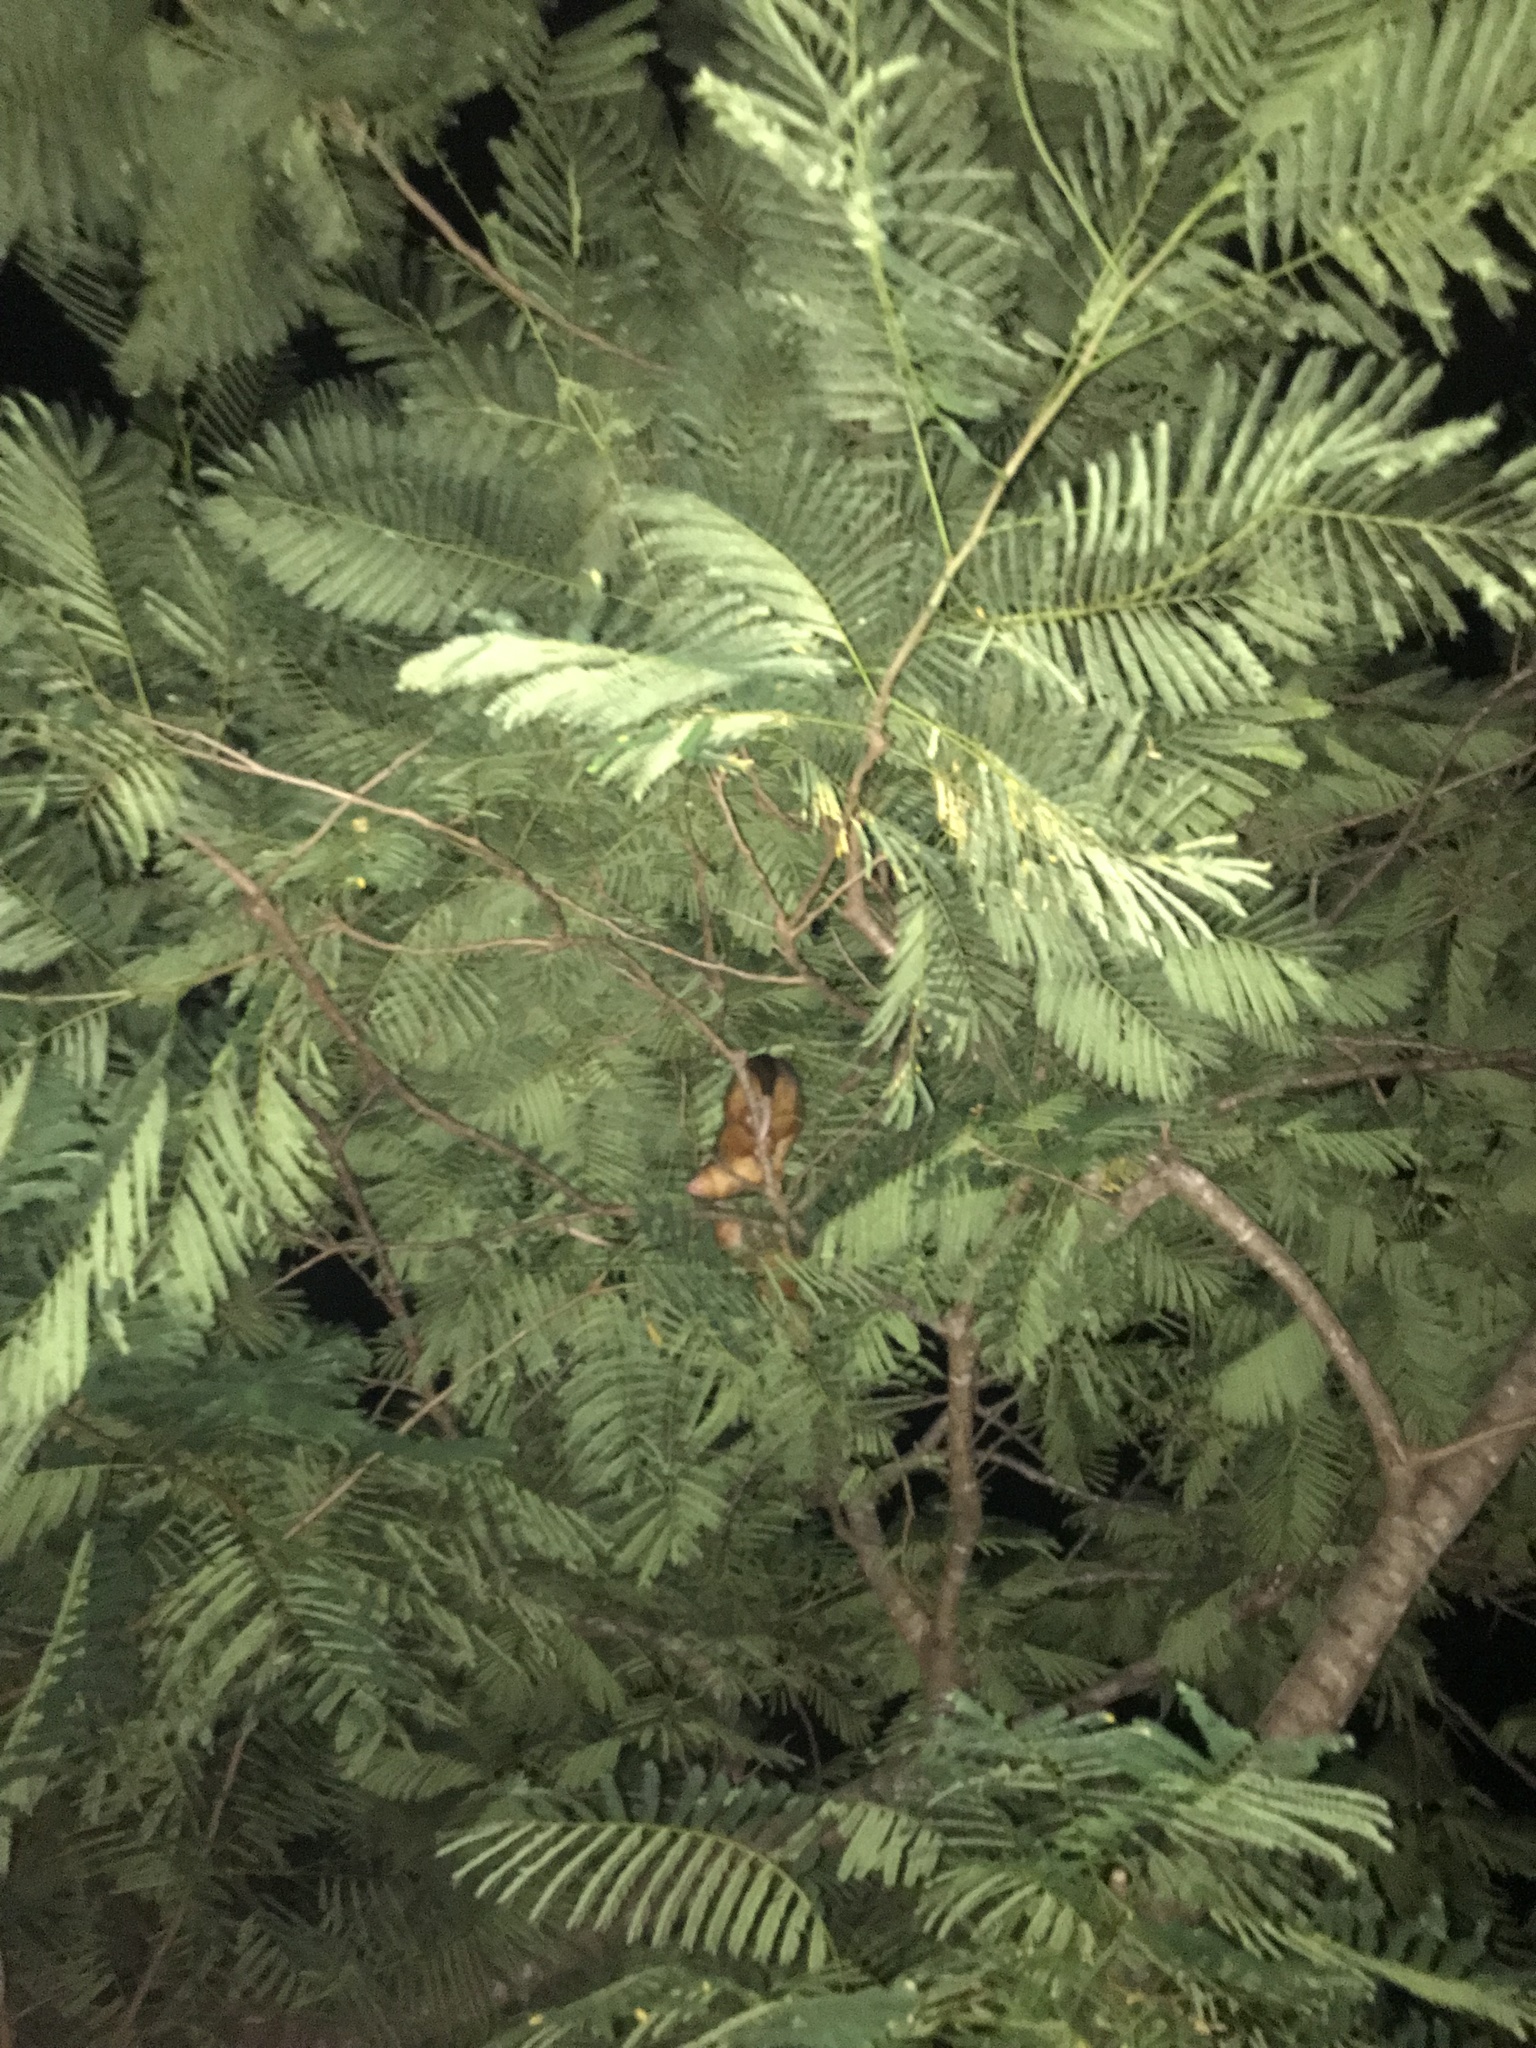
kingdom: Animalia
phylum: Chordata
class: Mammalia
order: Diprotodontia
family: Pseudocheiridae
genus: Pseudocheirus
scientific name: Pseudocheirus peregrinus
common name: Common ringtail possum
